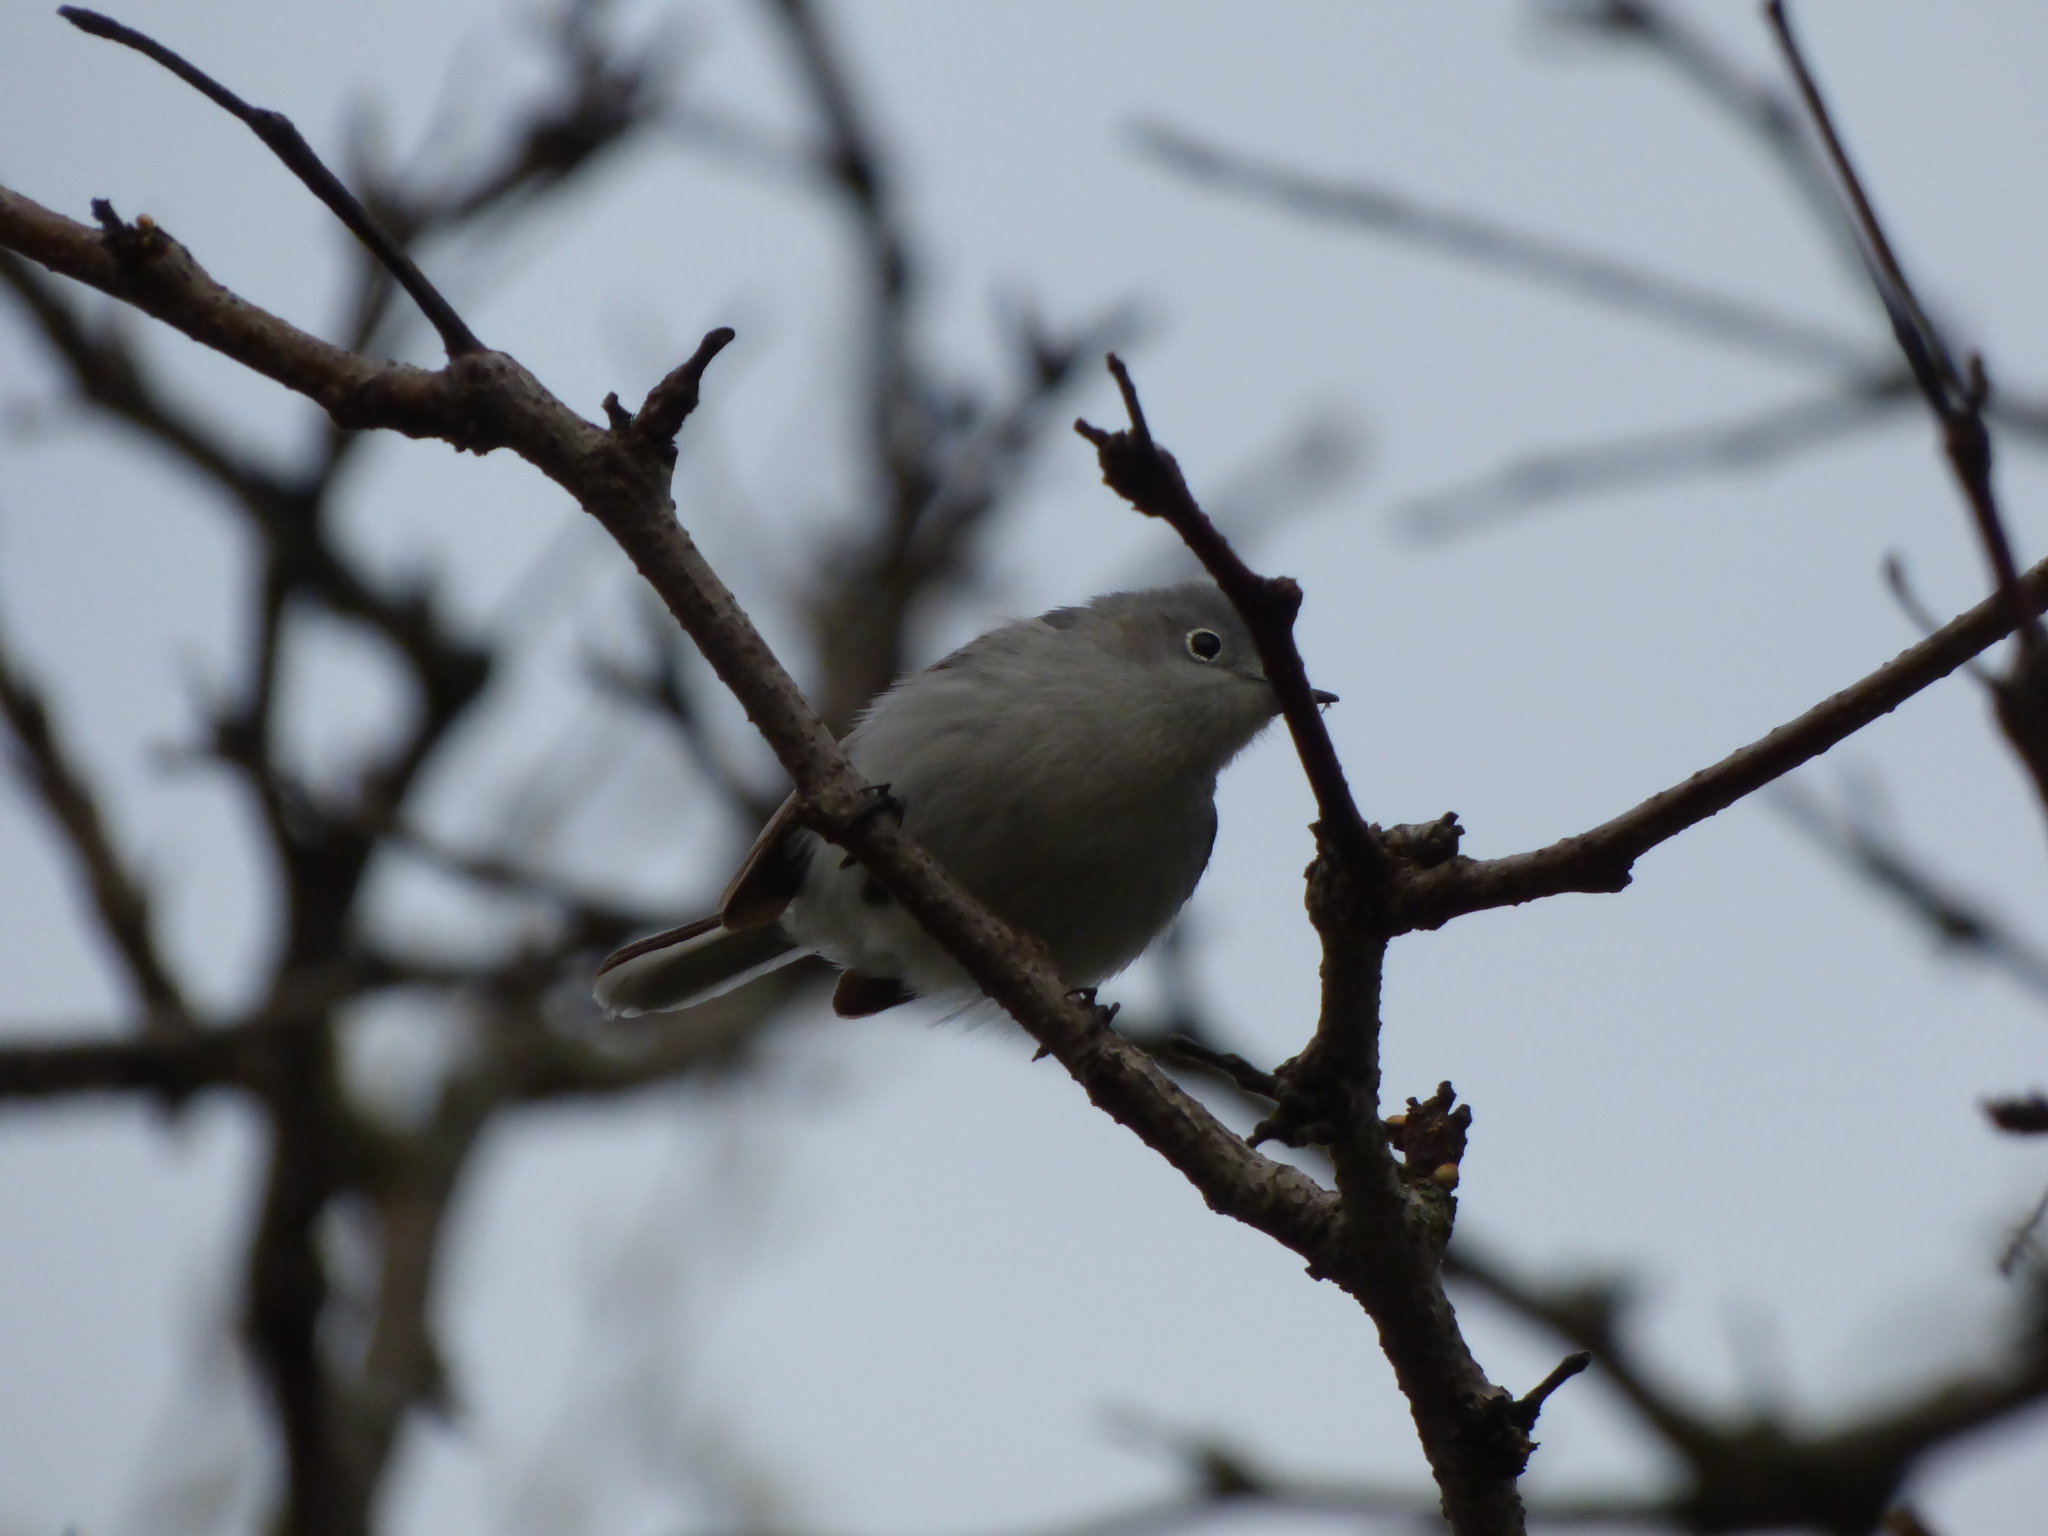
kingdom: Animalia
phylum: Chordata
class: Aves
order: Passeriformes
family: Polioptilidae
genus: Polioptila
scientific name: Polioptila caerulea
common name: Blue-gray gnatcatcher
